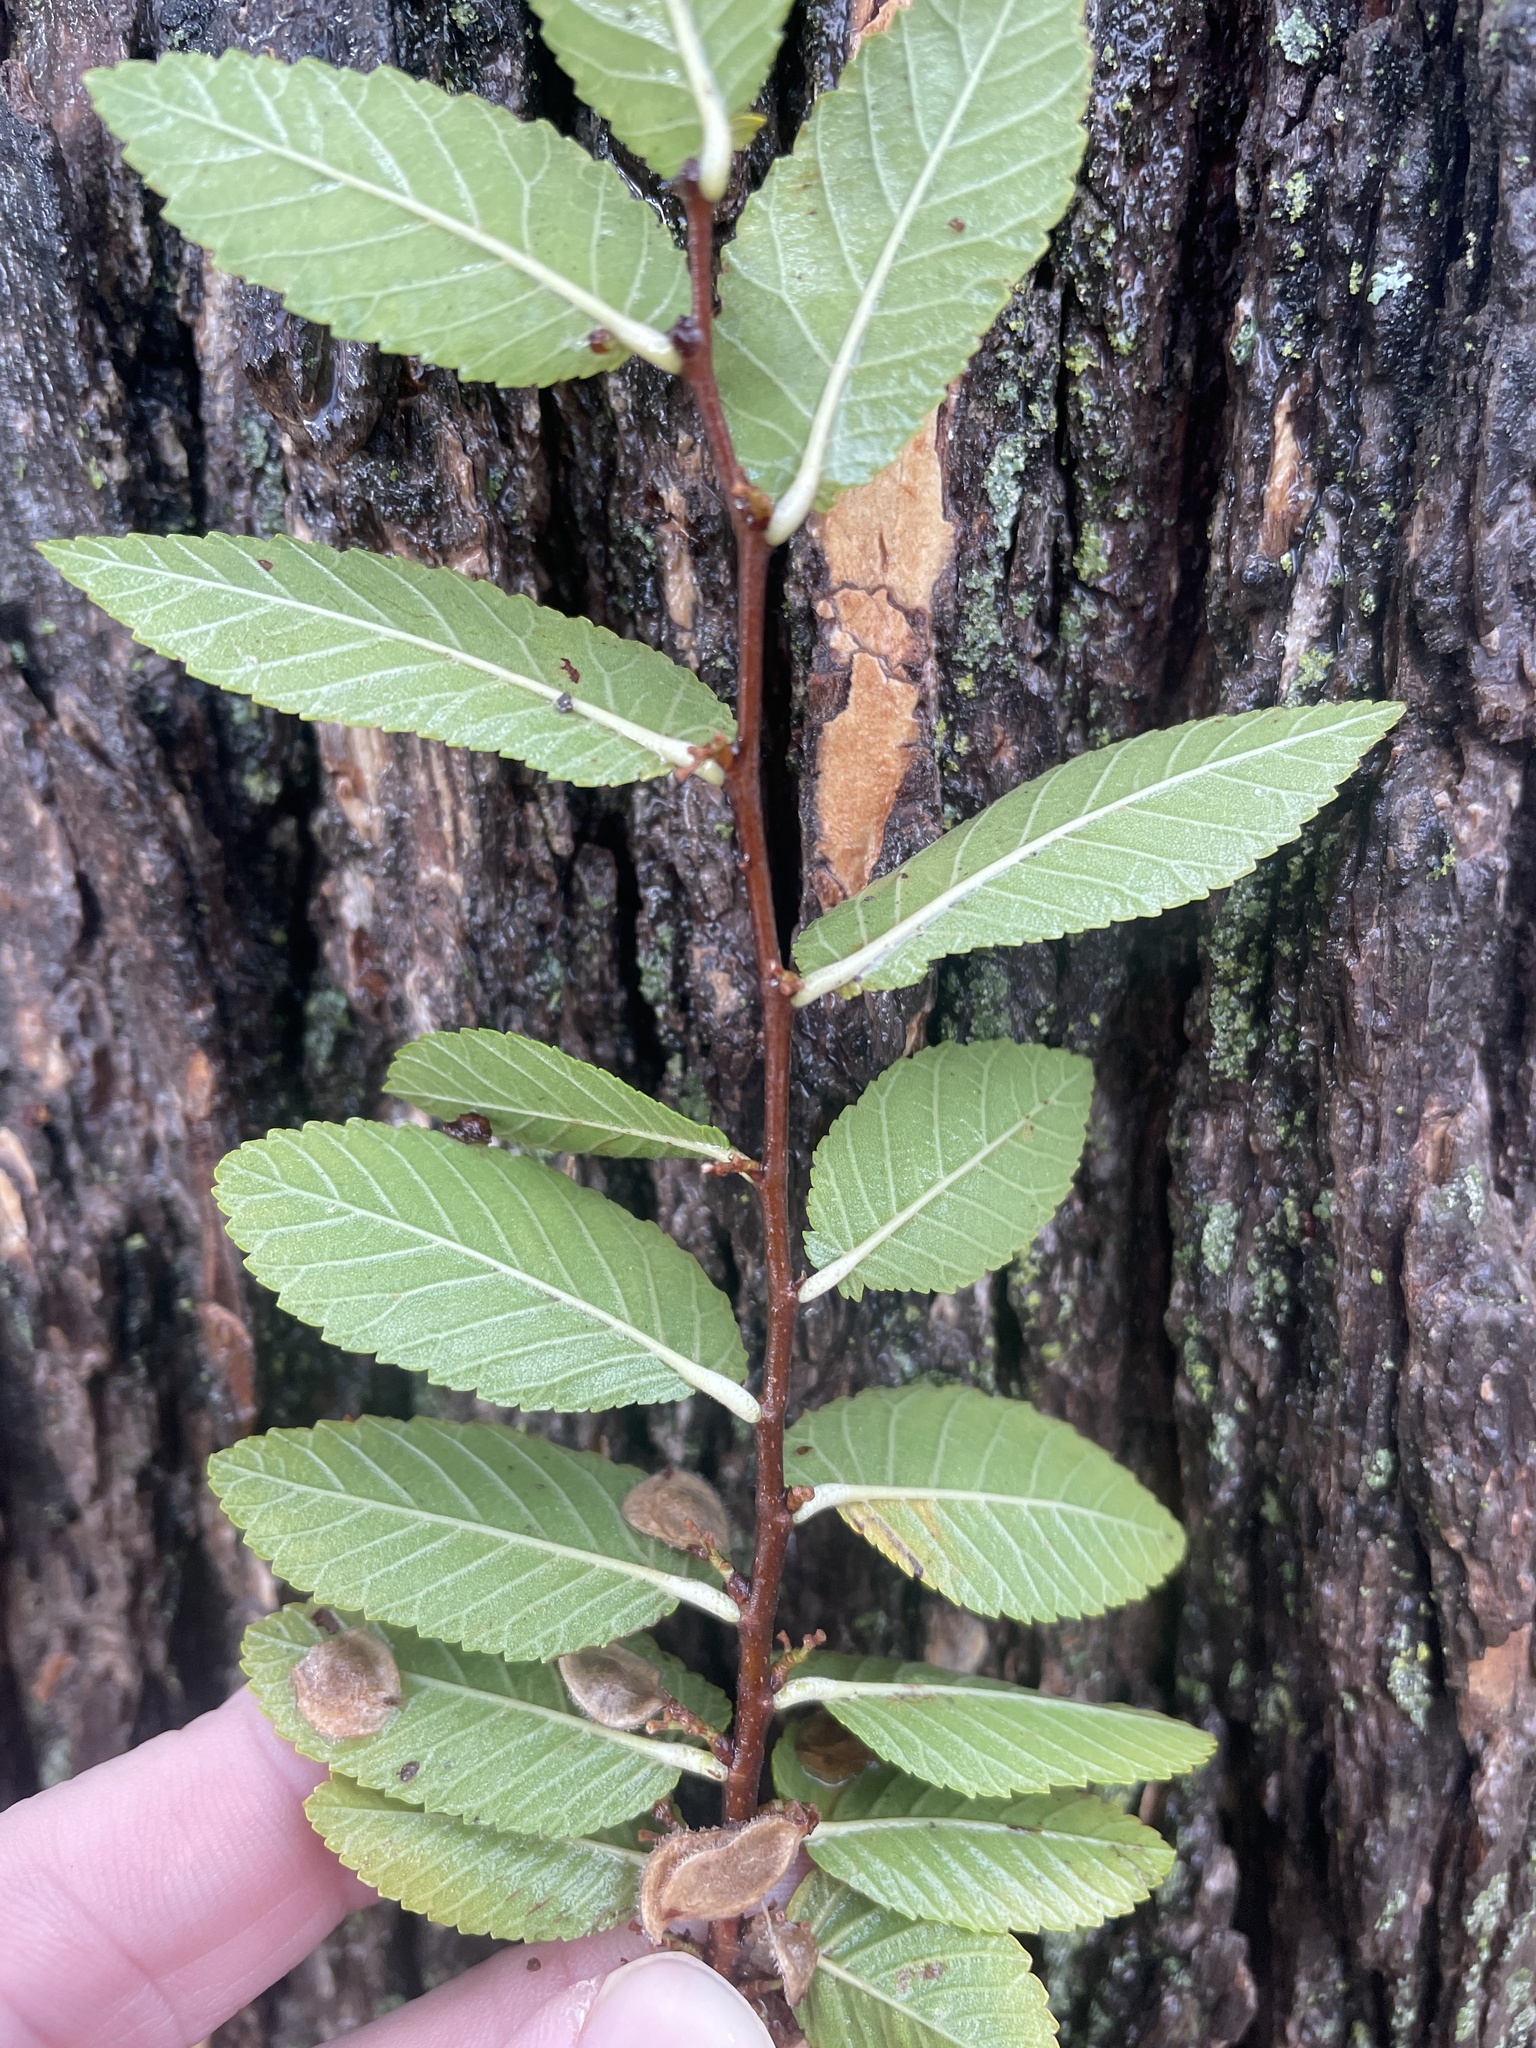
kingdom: Plantae
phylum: Tracheophyta
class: Magnoliopsida
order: Rosales
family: Ulmaceae
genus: Ulmus
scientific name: Ulmus crassifolia
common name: Basket elm
